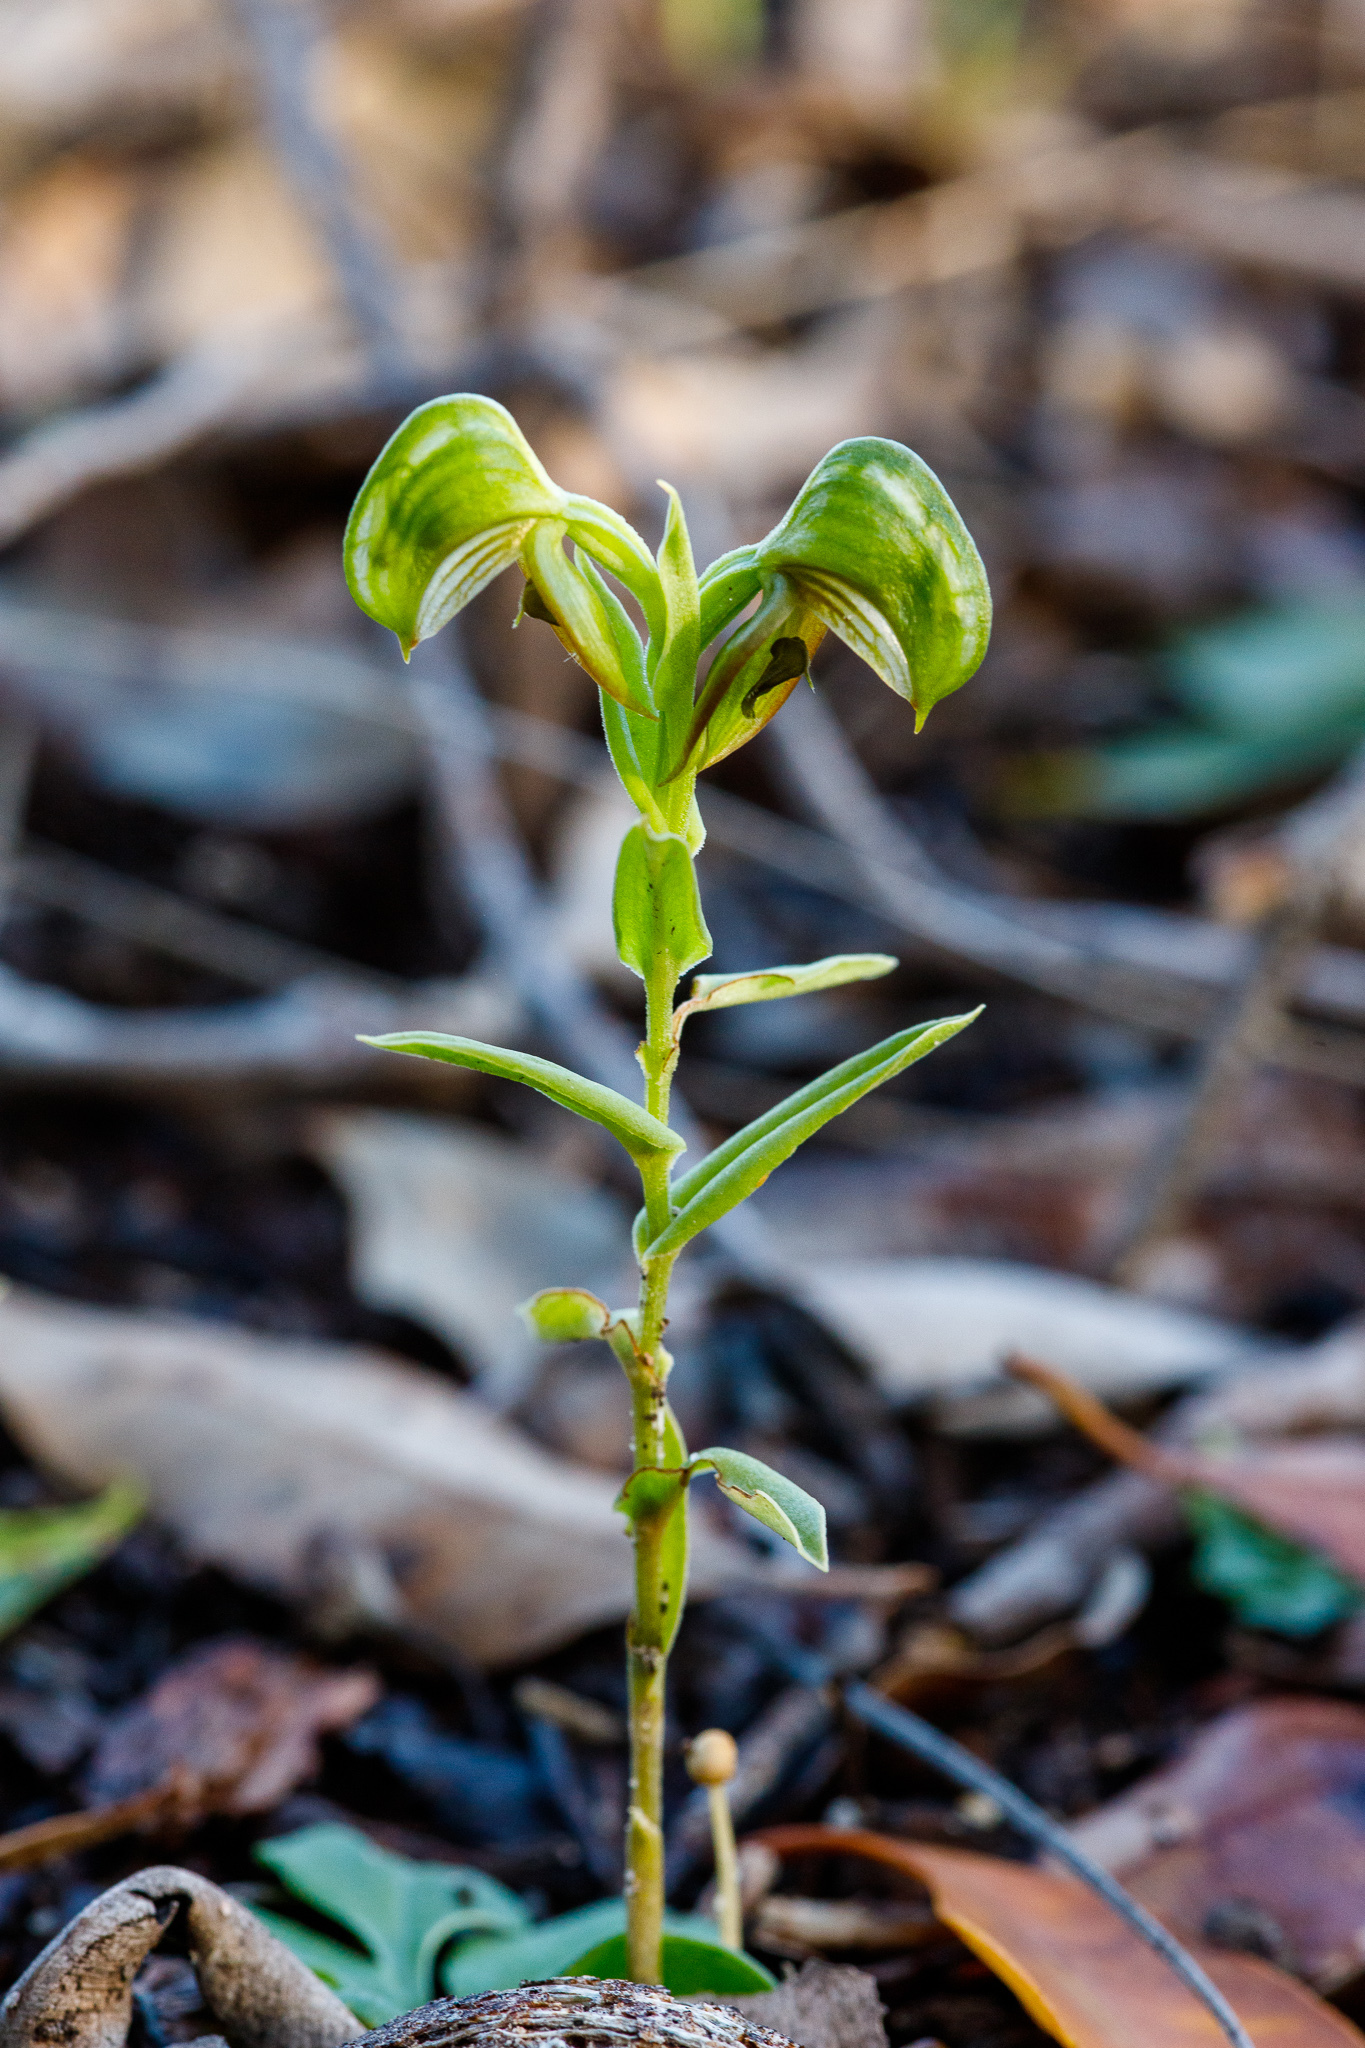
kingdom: Plantae
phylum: Tracheophyta
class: Liliopsida
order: Asparagales
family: Orchidaceae
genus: Pterostylis
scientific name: Pterostylis sanguinea
